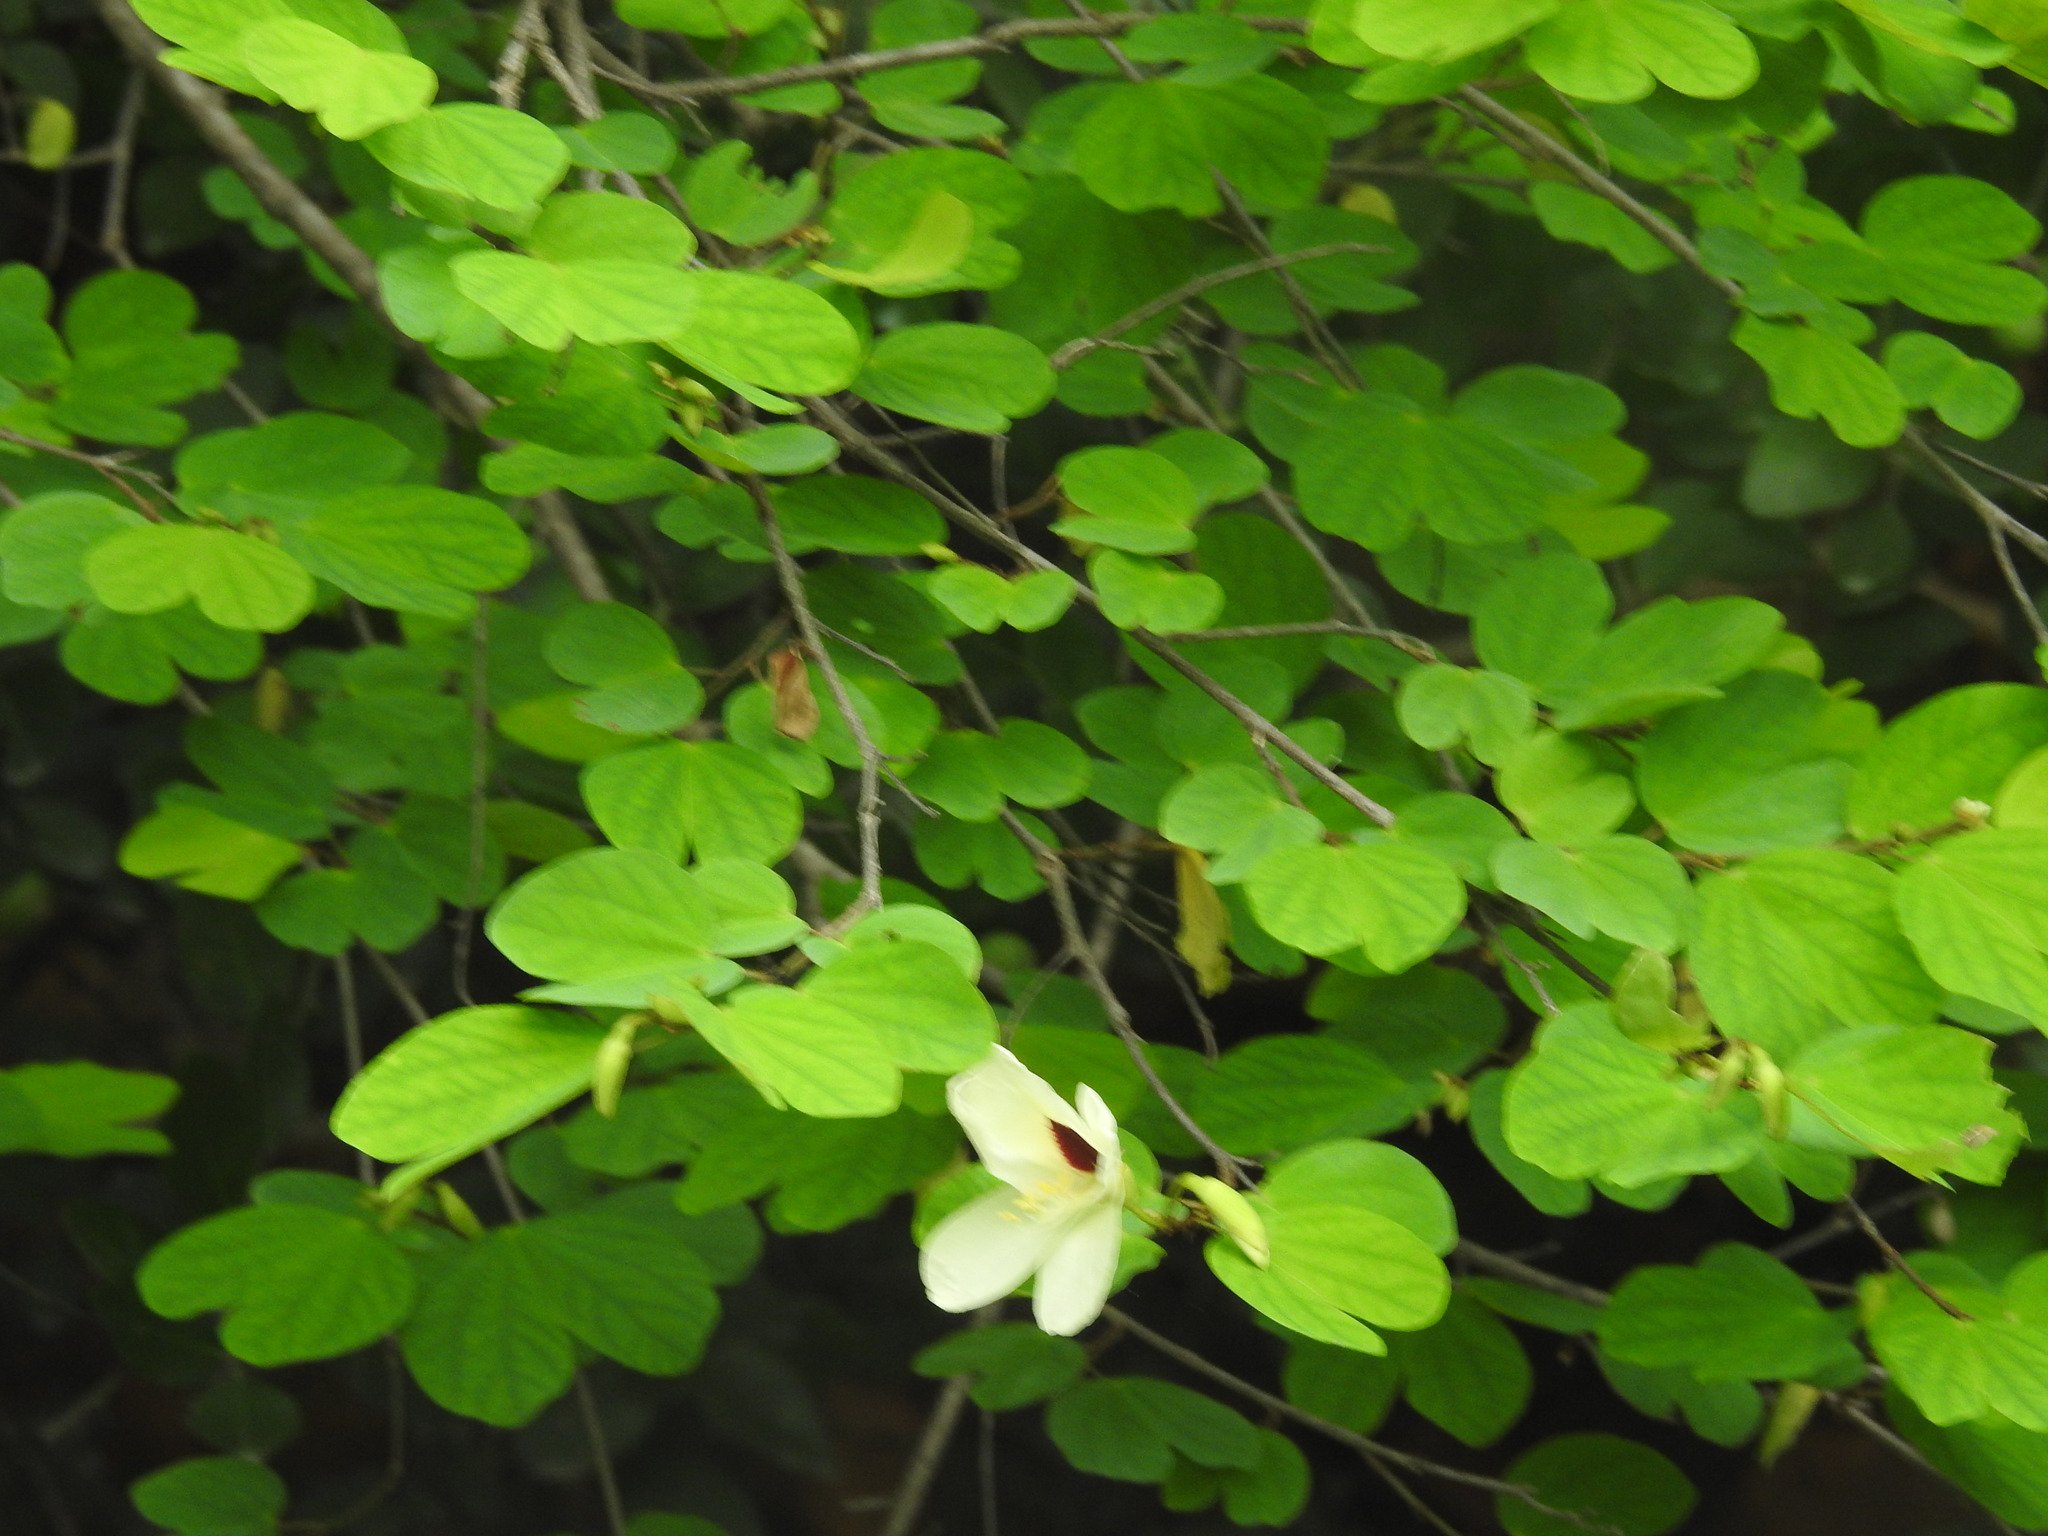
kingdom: Plantae
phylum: Tracheophyta
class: Magnoliopsida
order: Fabales
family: Fabaceae
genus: Bauhinia
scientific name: Bauhinia tomentosa
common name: Bell bauhinia
